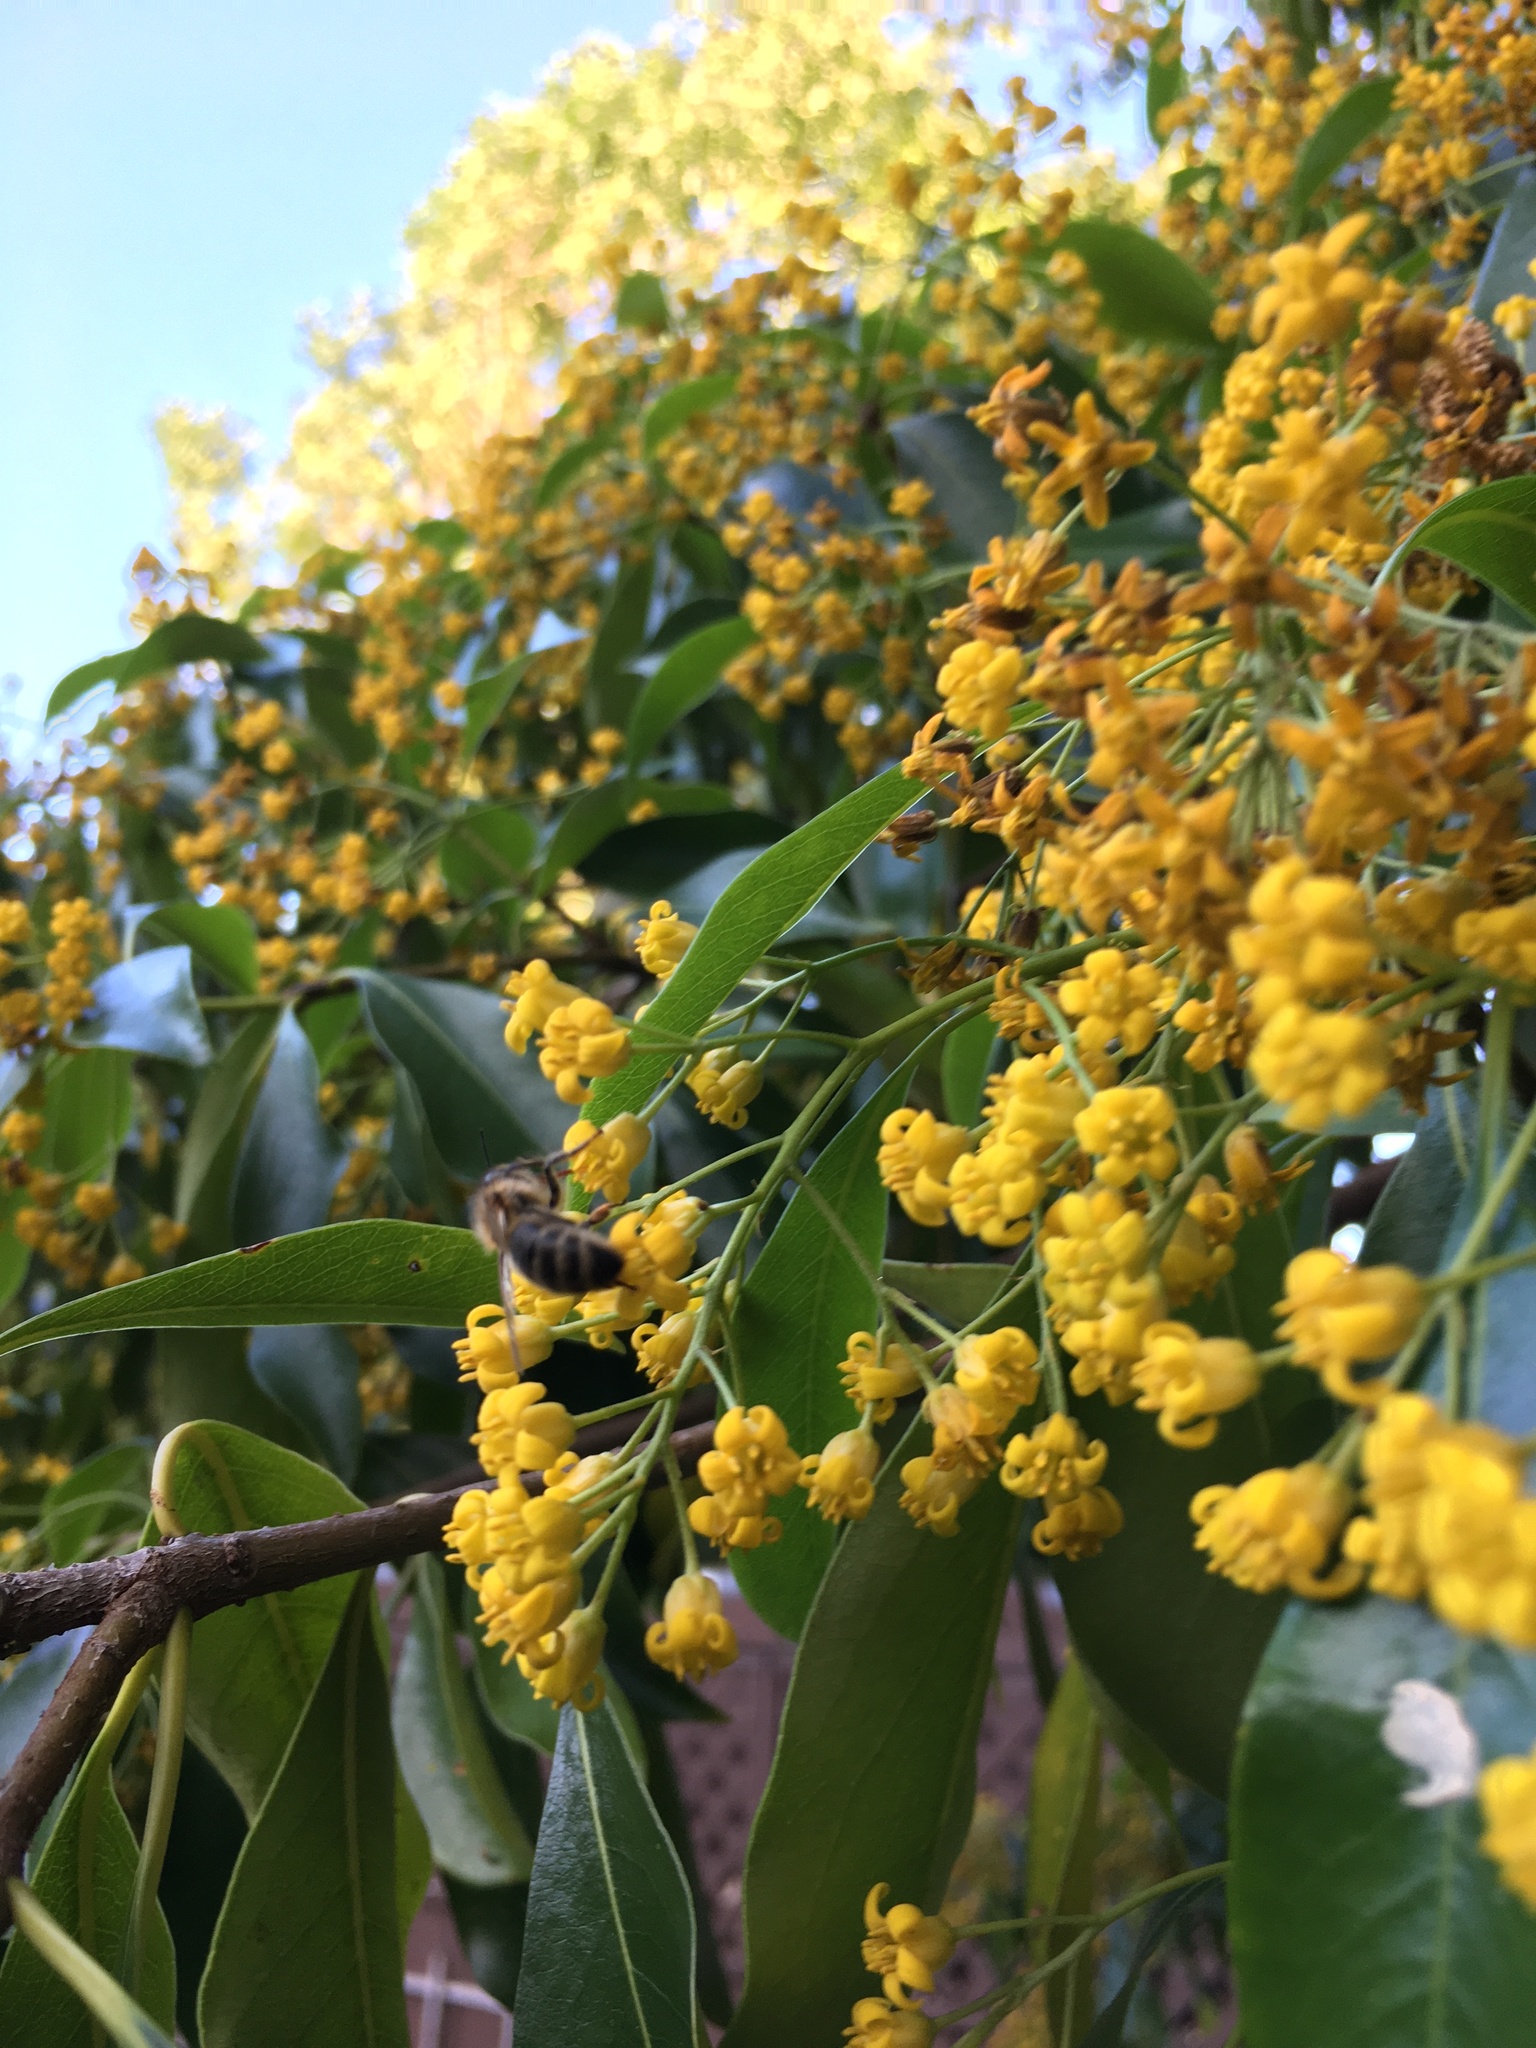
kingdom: Animalia
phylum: Arthropoda
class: Insecta
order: Hymenoptera
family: Apidae
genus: Apis
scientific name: Apis mellifera
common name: Honey bee
